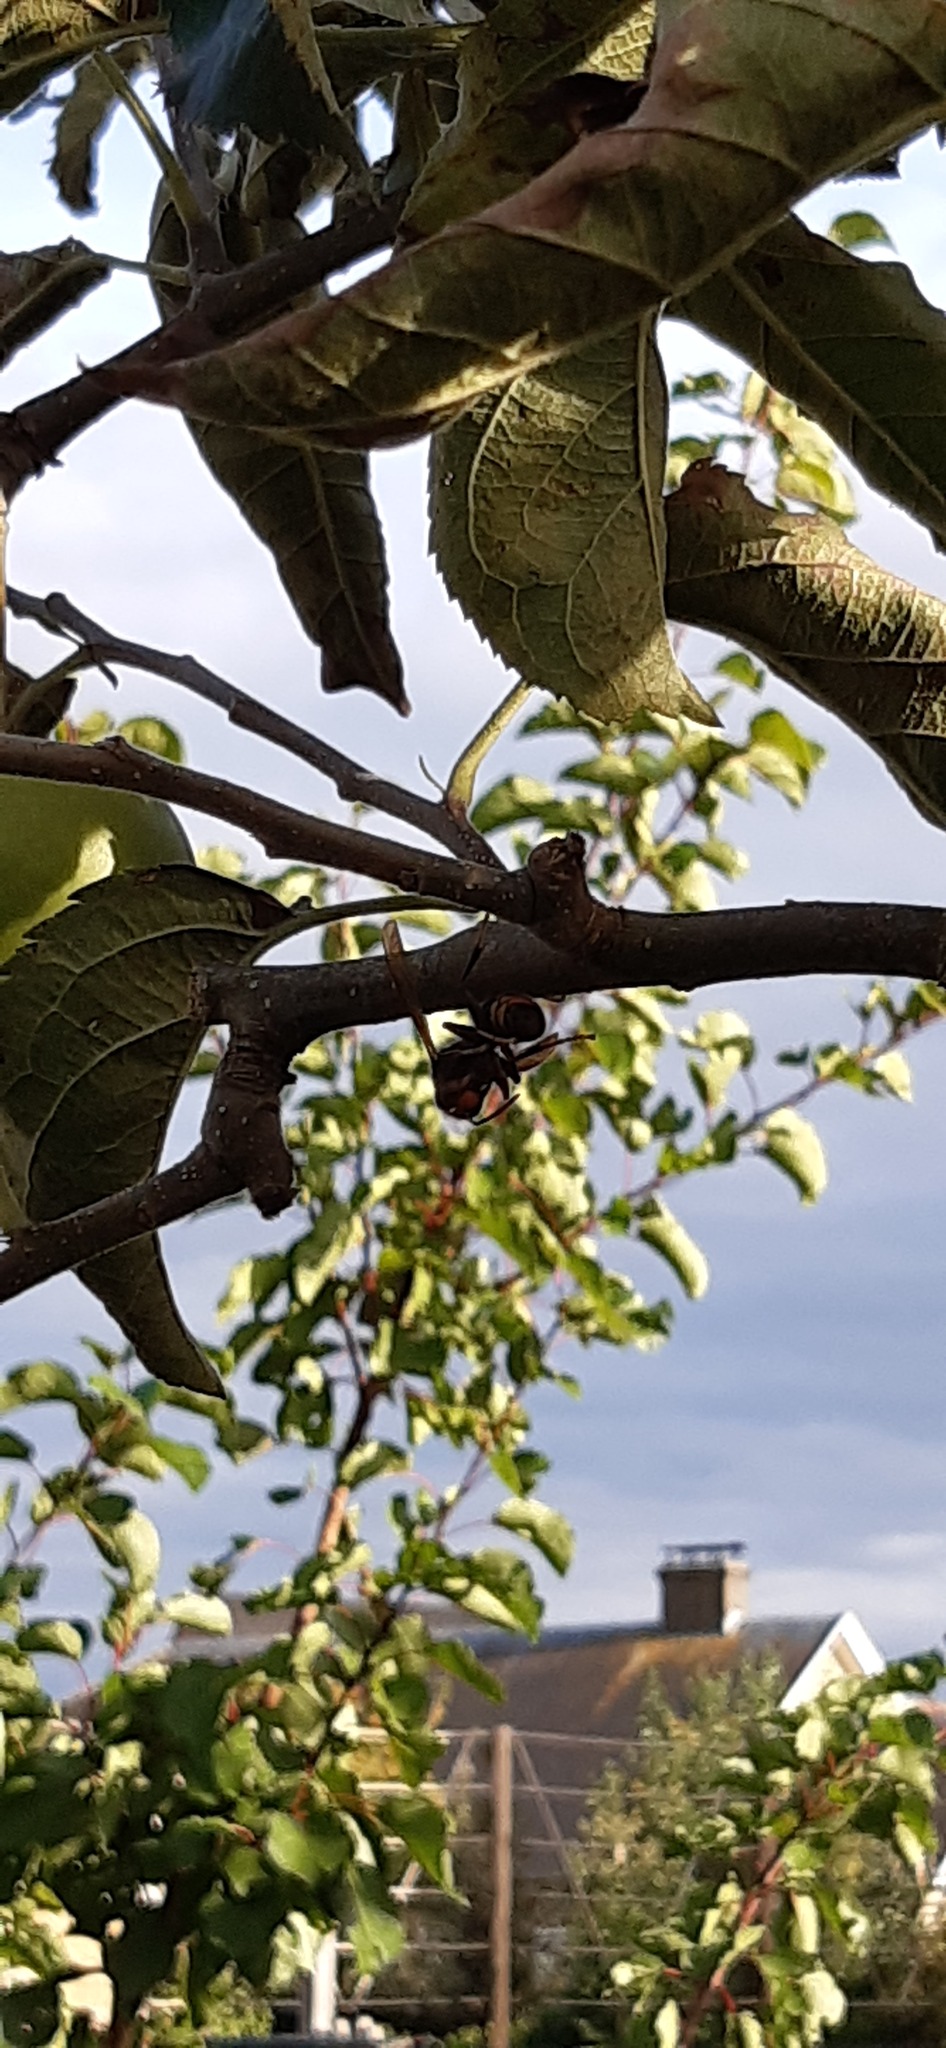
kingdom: Animalia
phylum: Arthropoda
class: Insecta
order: Hymenoptera
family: Vespidae
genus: Vespa
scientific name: Vespa velutina
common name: Asian hornet
